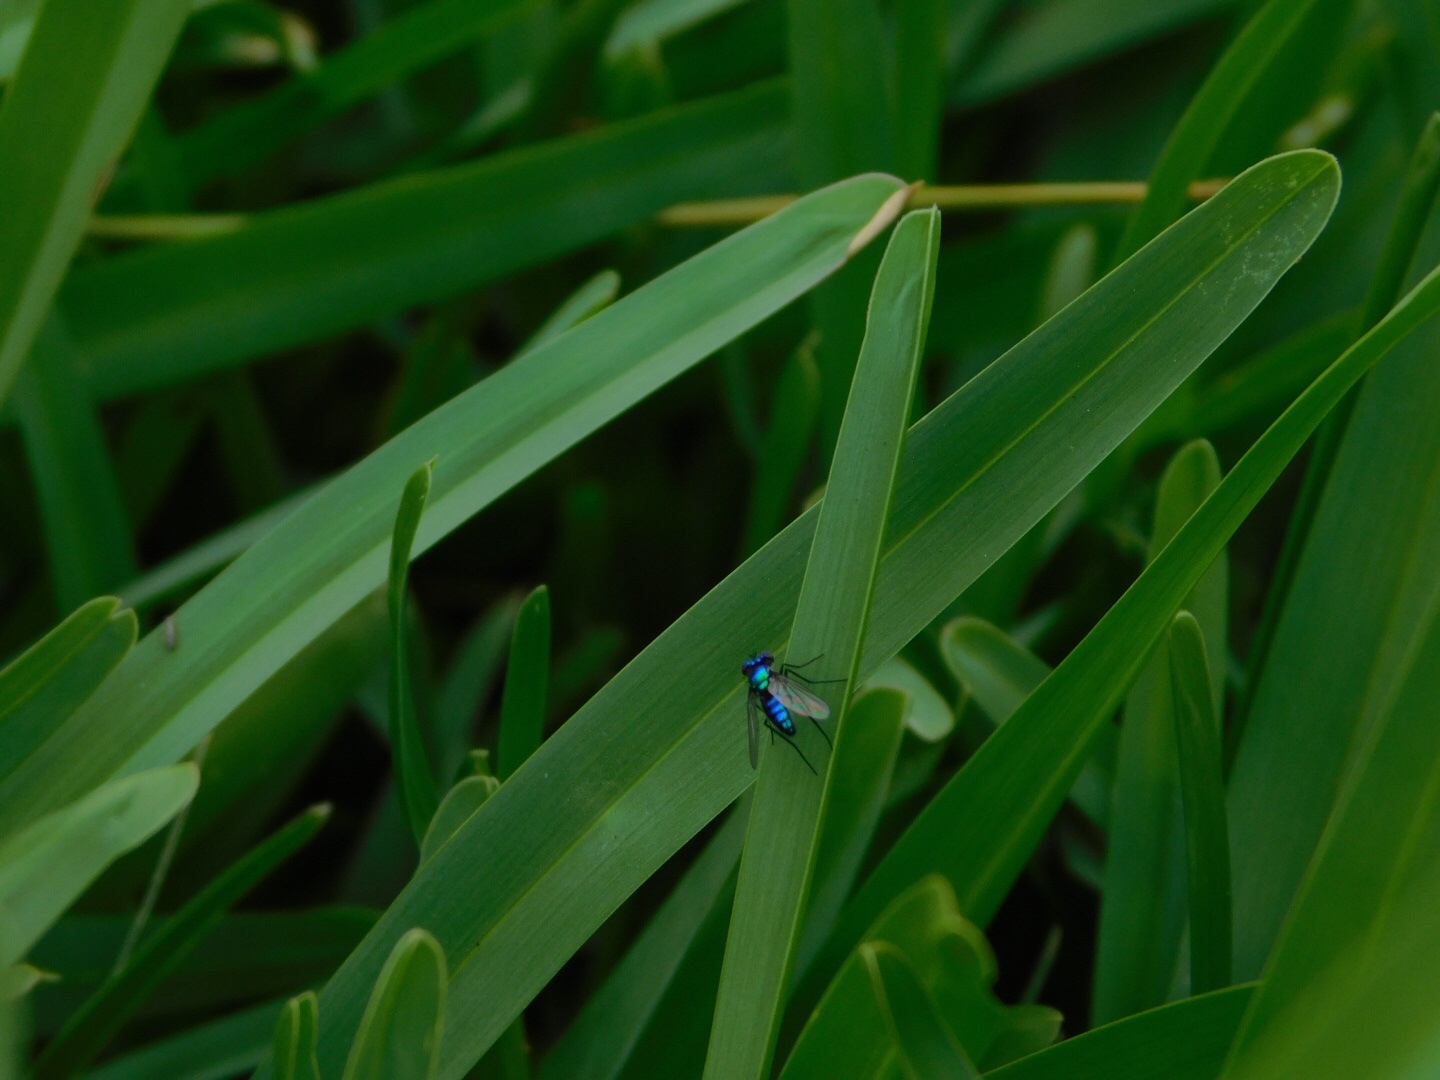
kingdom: Animalia
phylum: Arthropoda
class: Insecta
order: Diptera
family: Dolichopodidae
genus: Condylostylus
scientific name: Condylostylus mundus
